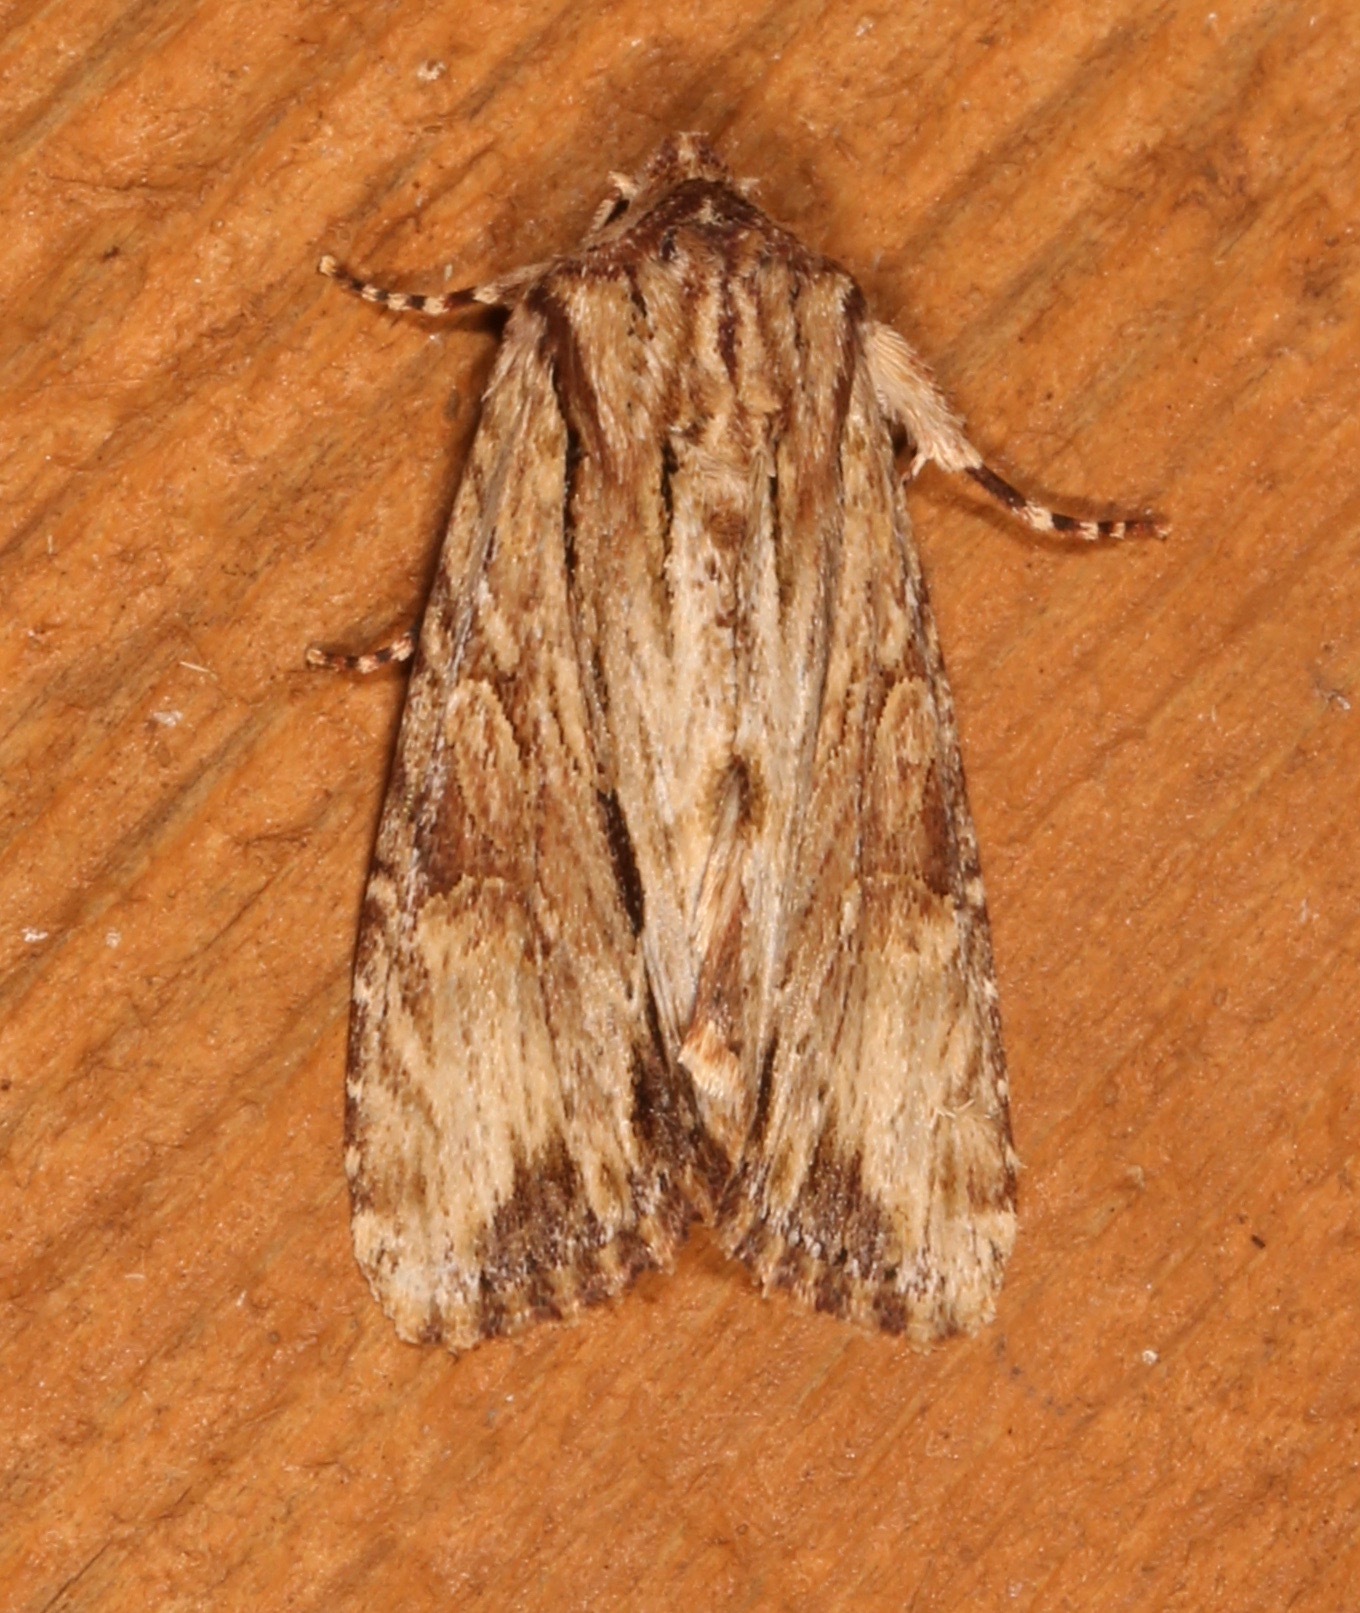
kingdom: Animalia
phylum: Arthropoda
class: Insecta
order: Lepidoptera
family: Noctuidae
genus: Achatia
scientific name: Achatia mucens
